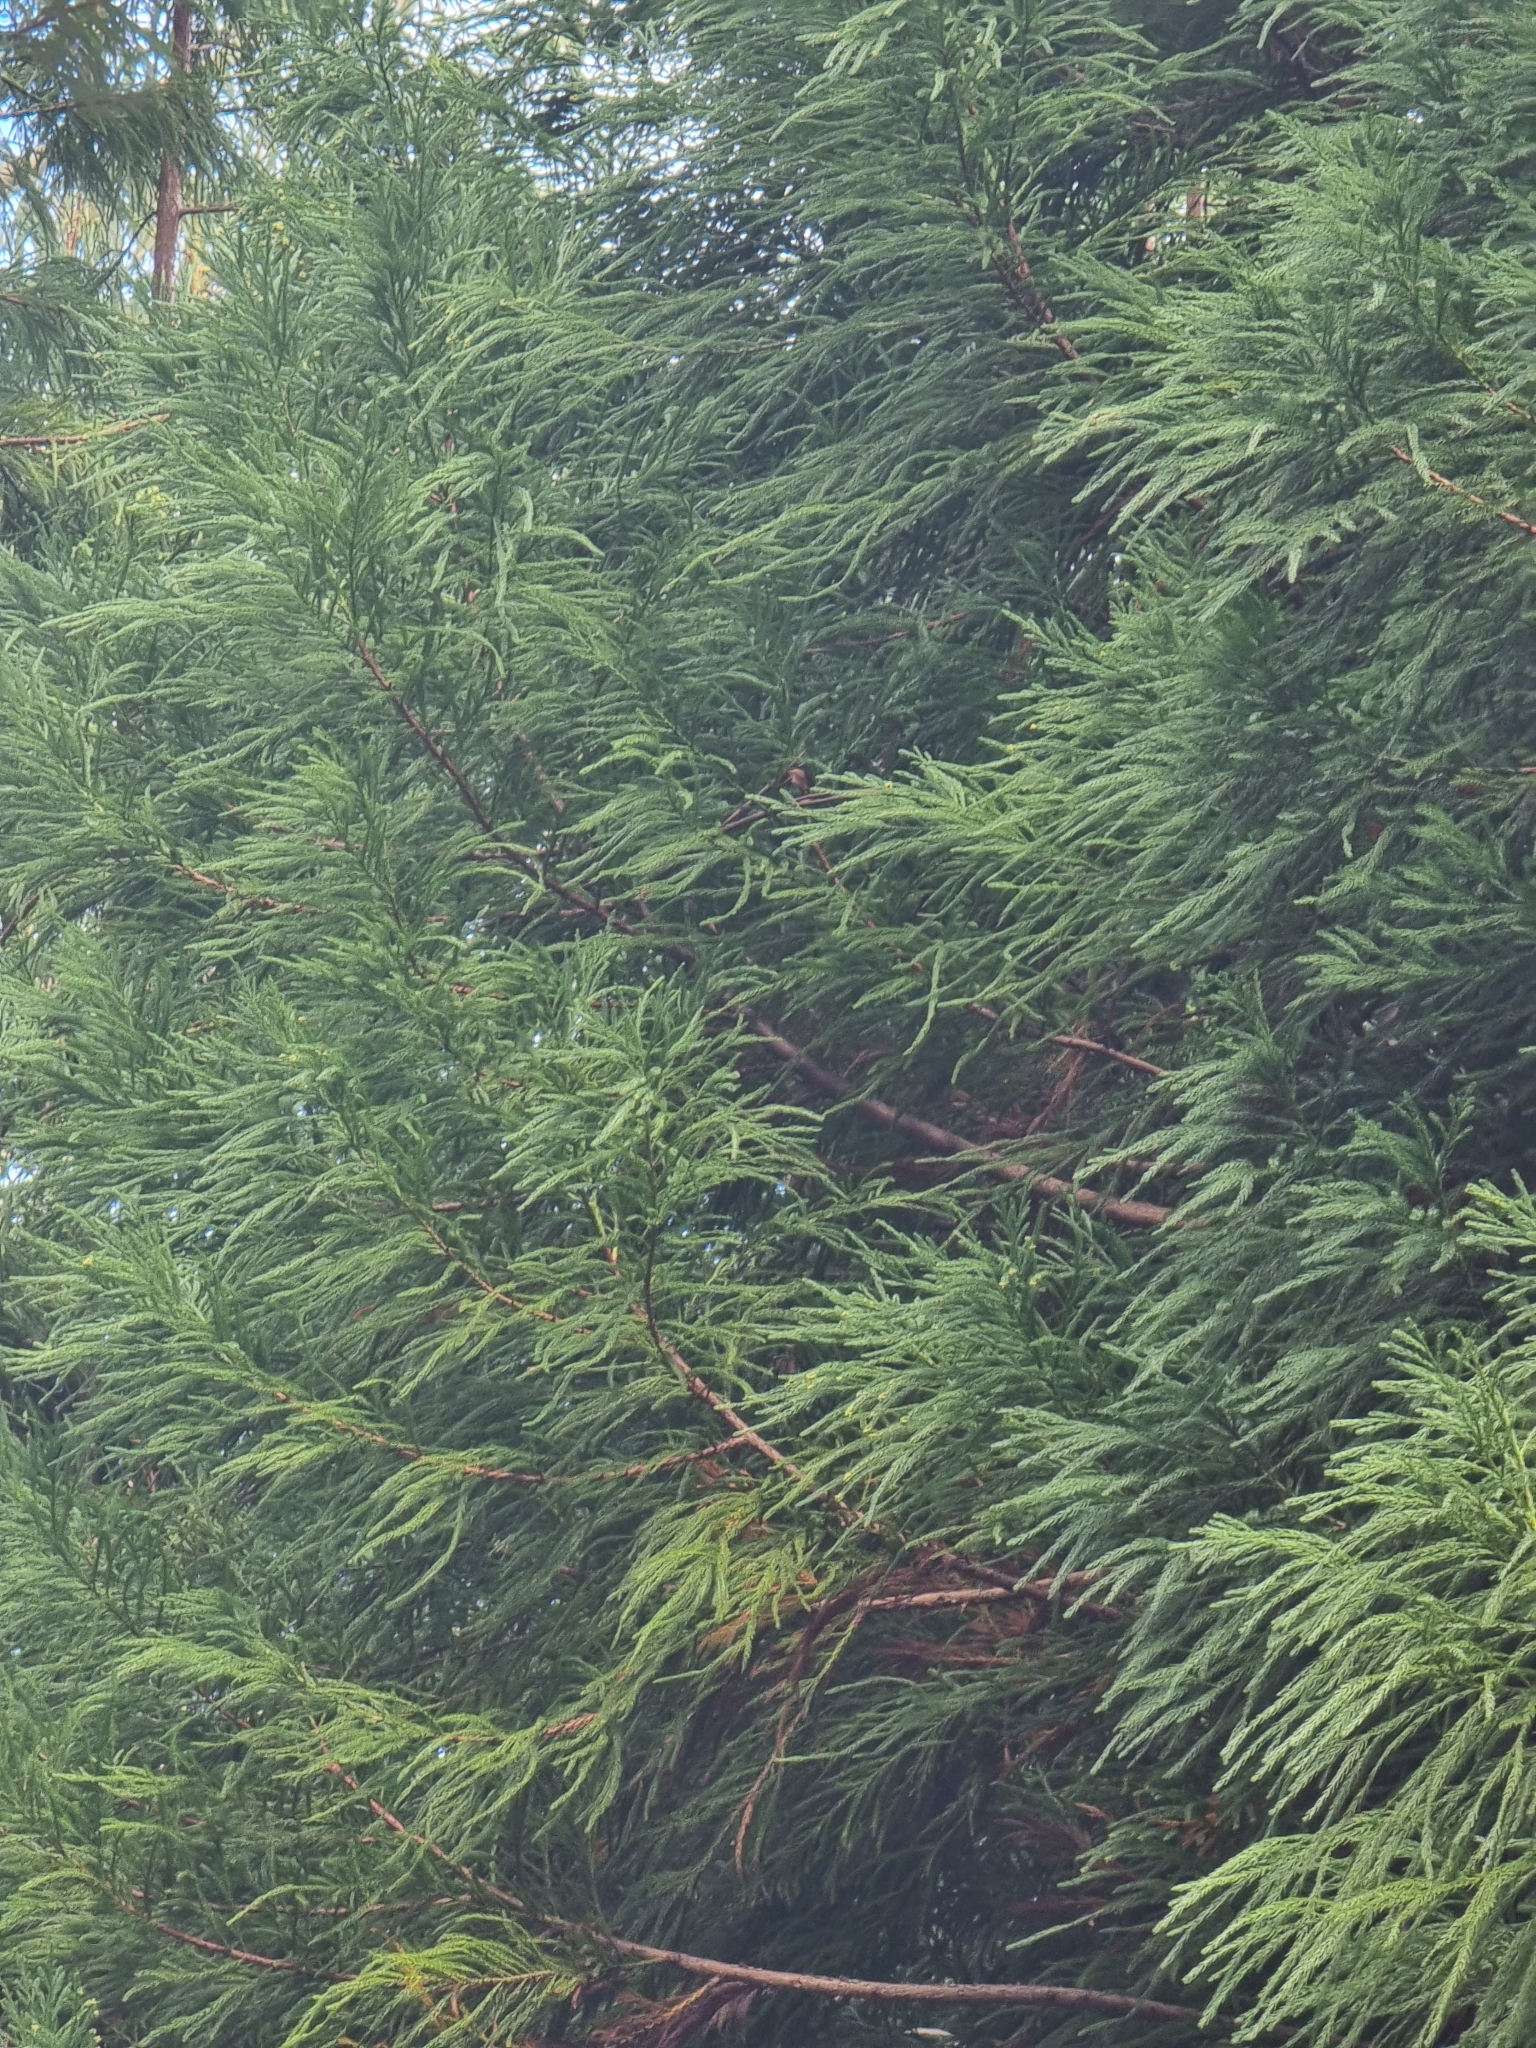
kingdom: Plantae
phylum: Tracheophyta
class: Pinopsida
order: Pinales
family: Cupressaceae
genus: Cryptomeria
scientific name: Cryptomeria japonica
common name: Japanese cedar
